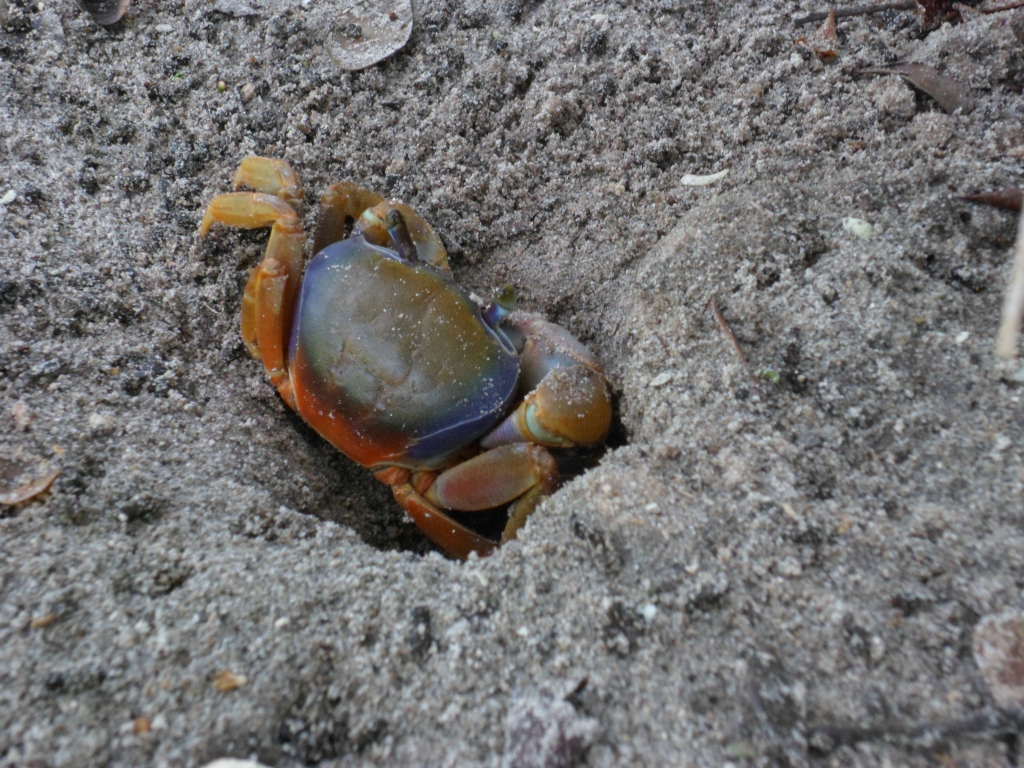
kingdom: Animalia
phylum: Arthropoda
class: Malacostraca
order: Decapoda
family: Gecarcinidae
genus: Cardisoma
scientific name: Cardisoma guanhumi
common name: Great land crab
